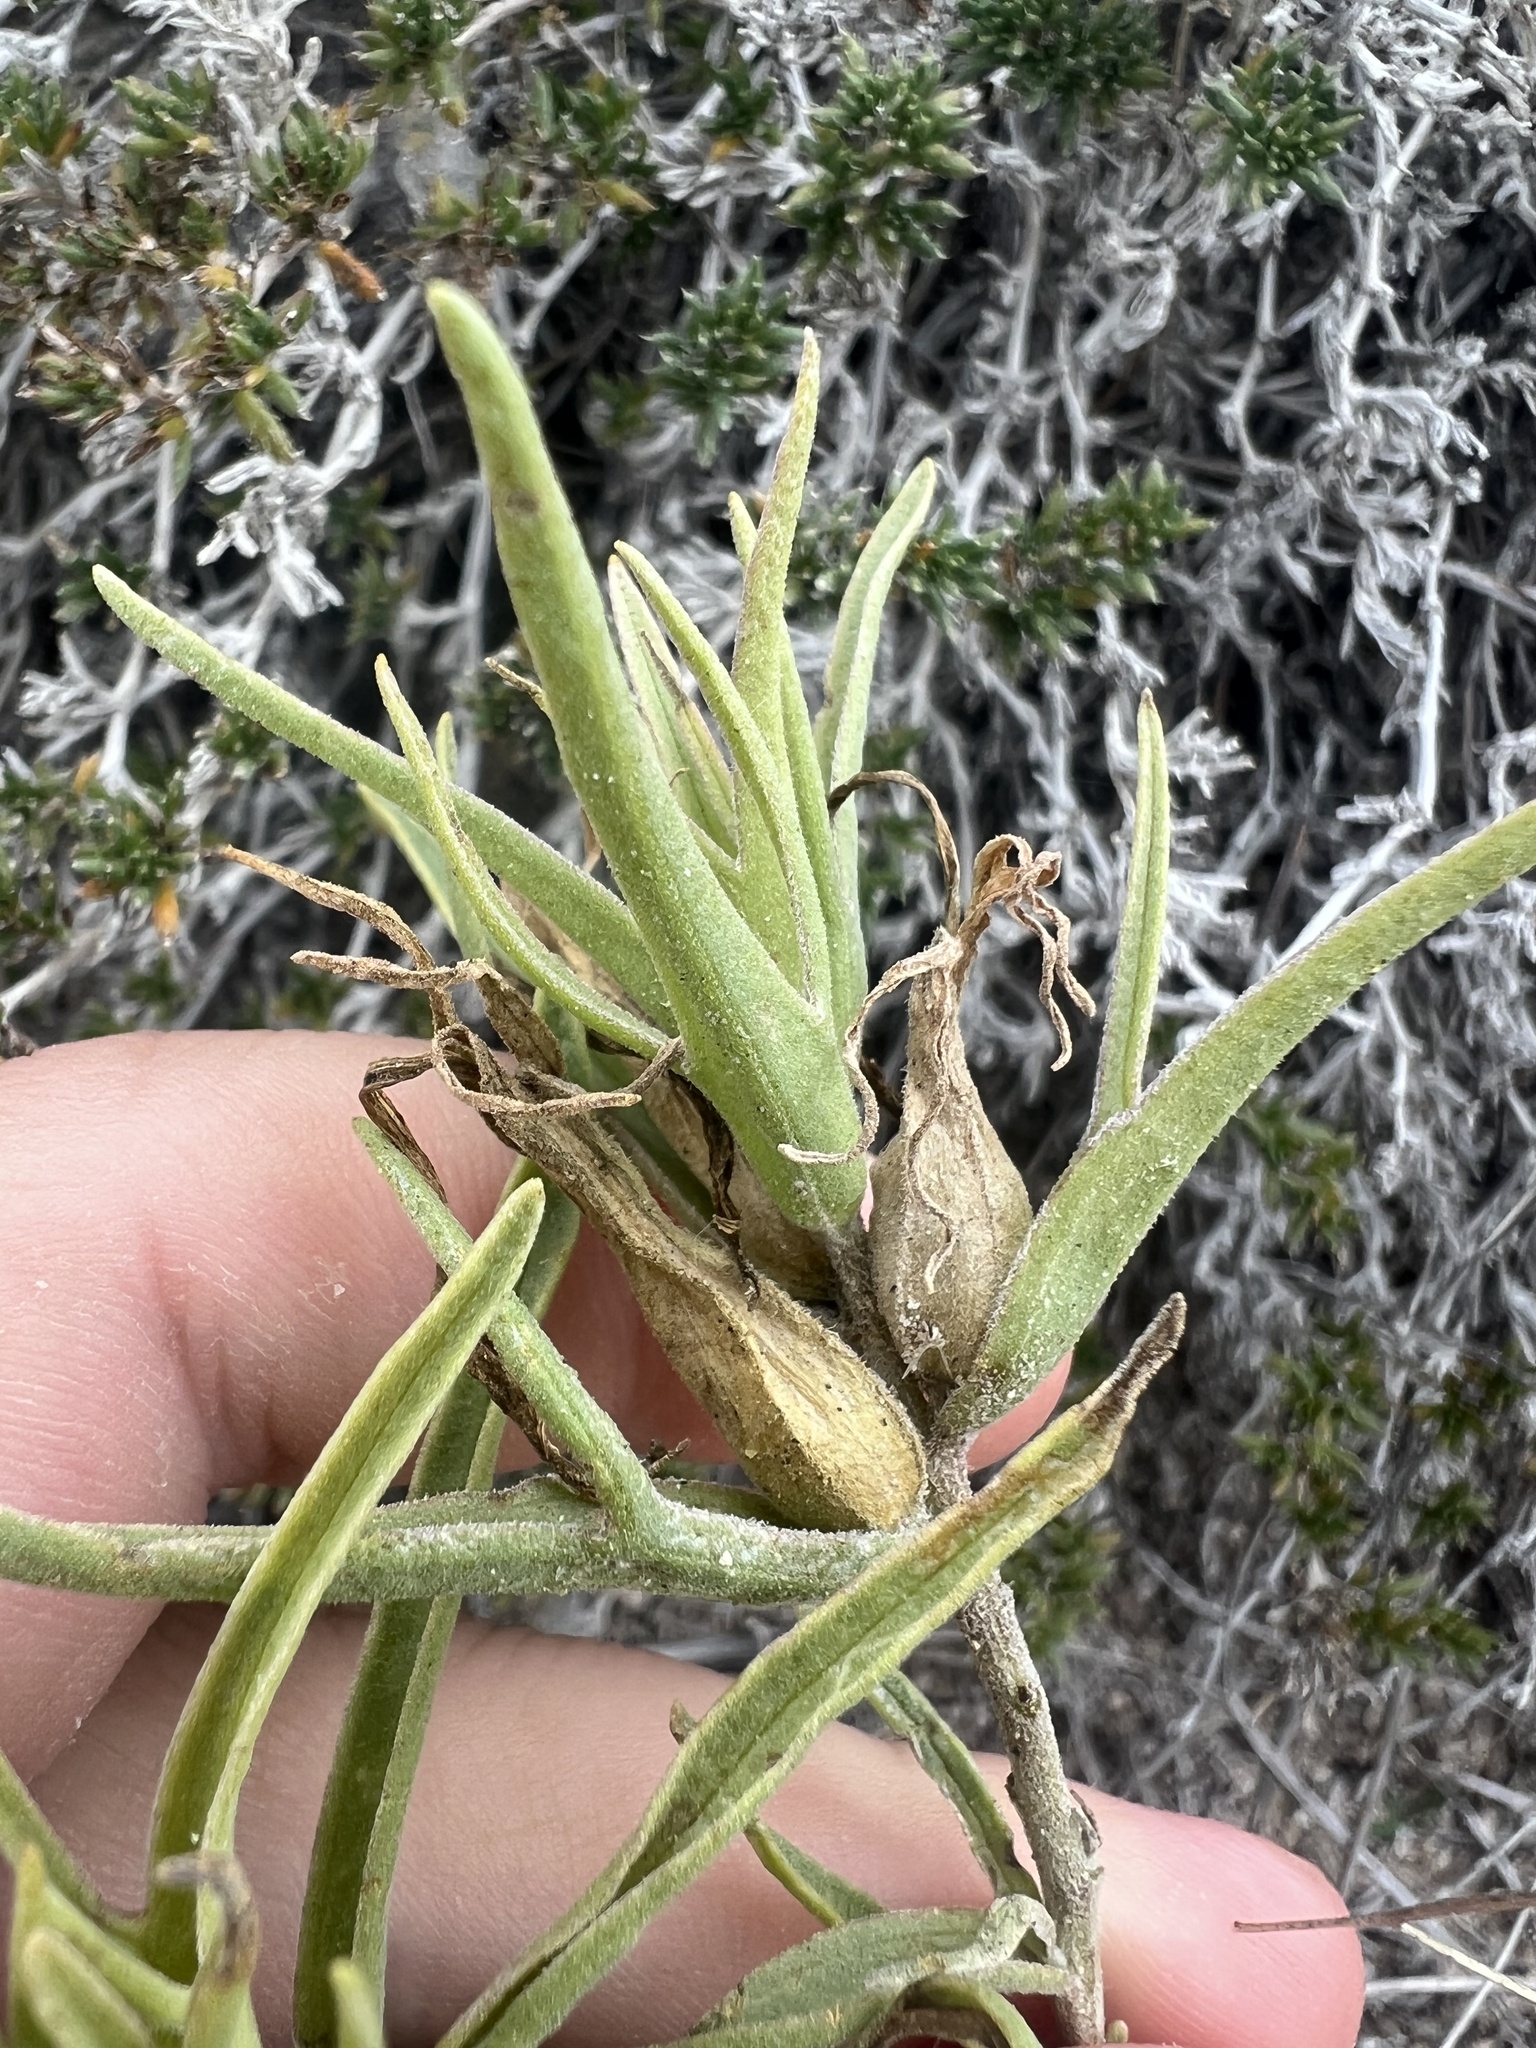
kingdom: Plantae
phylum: Tracheophyta
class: Magnoliopsida
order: Lamiales
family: Orobanchaceae
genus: Castilleja
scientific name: Castilleja sessiliflora
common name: Downy paintbrush
